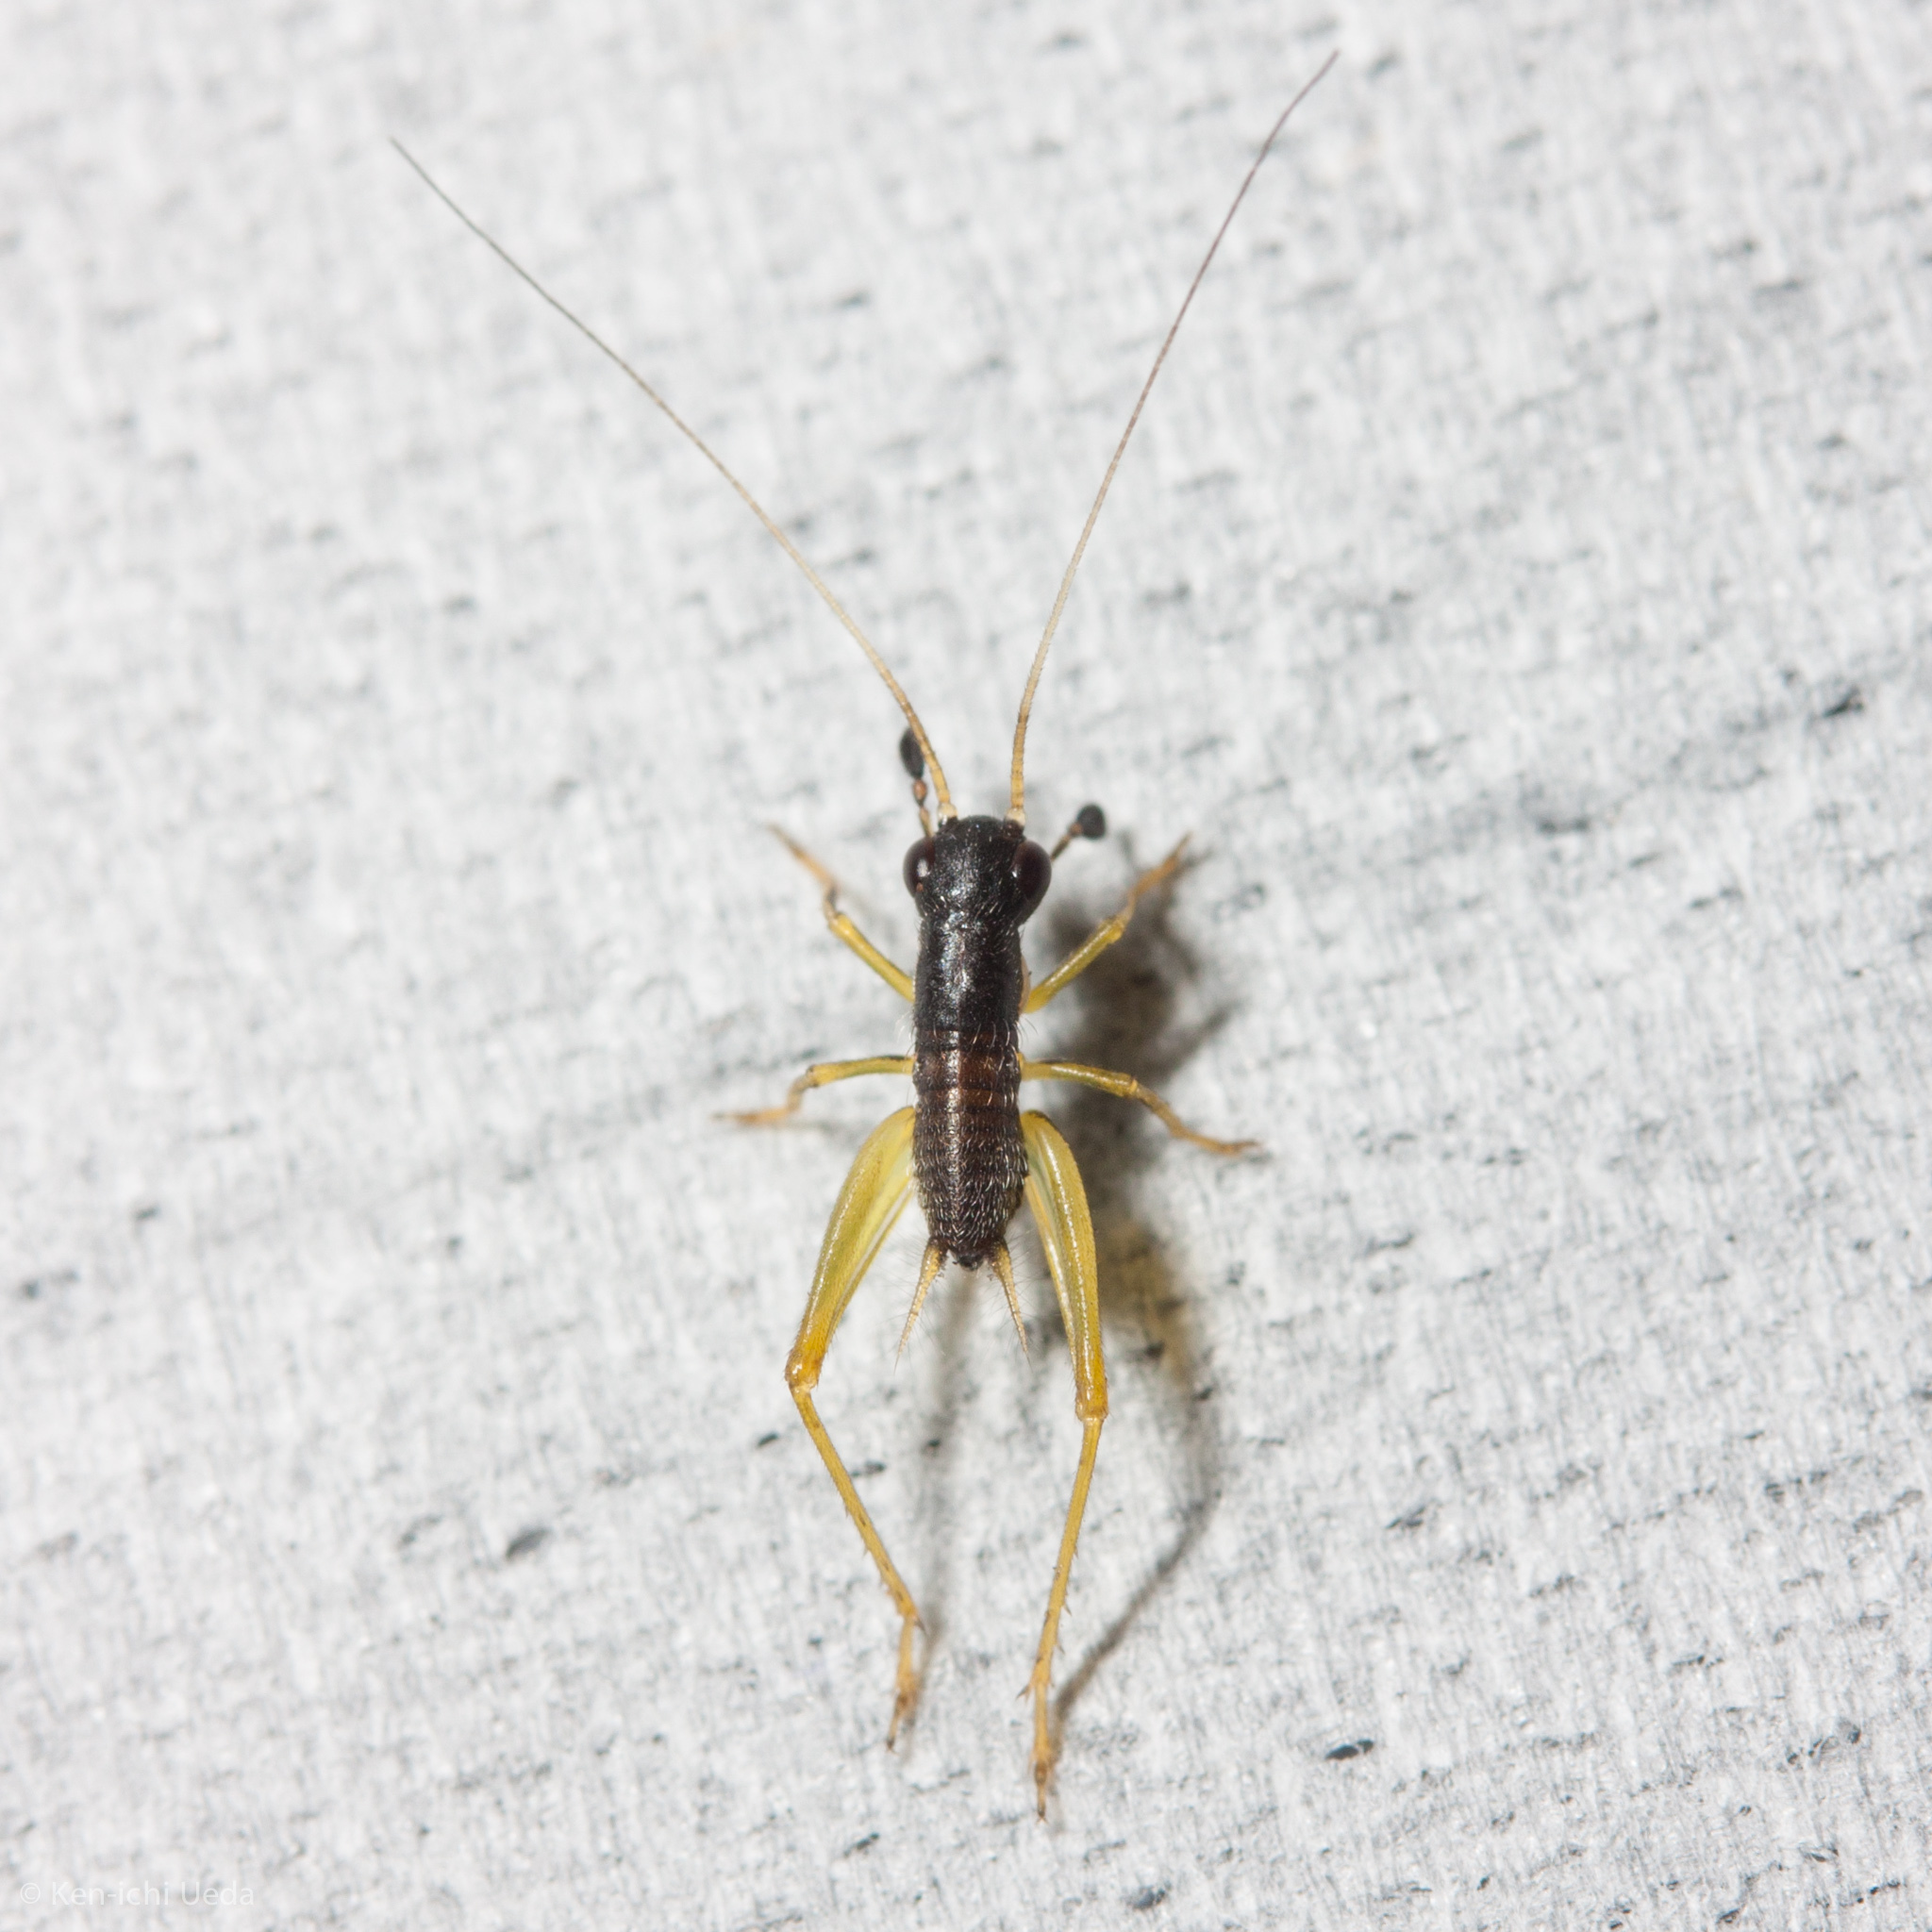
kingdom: Animalia
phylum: Arthropoda
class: Insecta
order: Orthoptera
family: Trigonidiidae
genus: Phyllopalpus
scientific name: Phyllopalpus pulchellus
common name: Handsome trig
